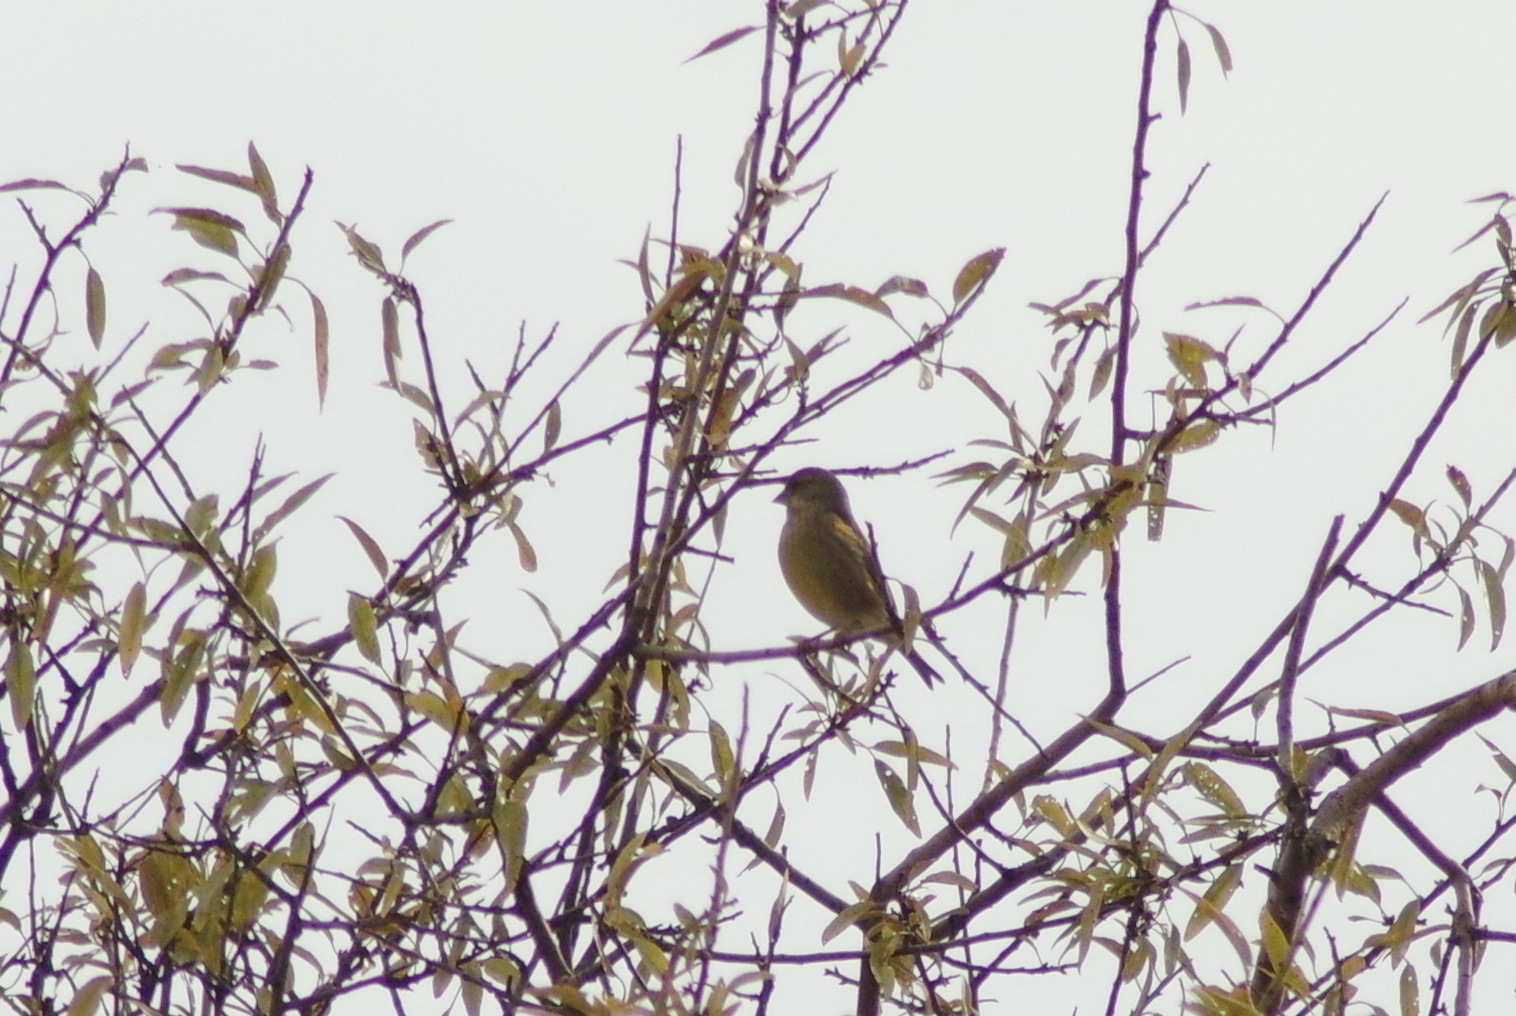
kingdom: Plantae
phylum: Tracheophyta
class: Liliopsida
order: Poales
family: Poaceae
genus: Chloris
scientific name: Chloris chloris
